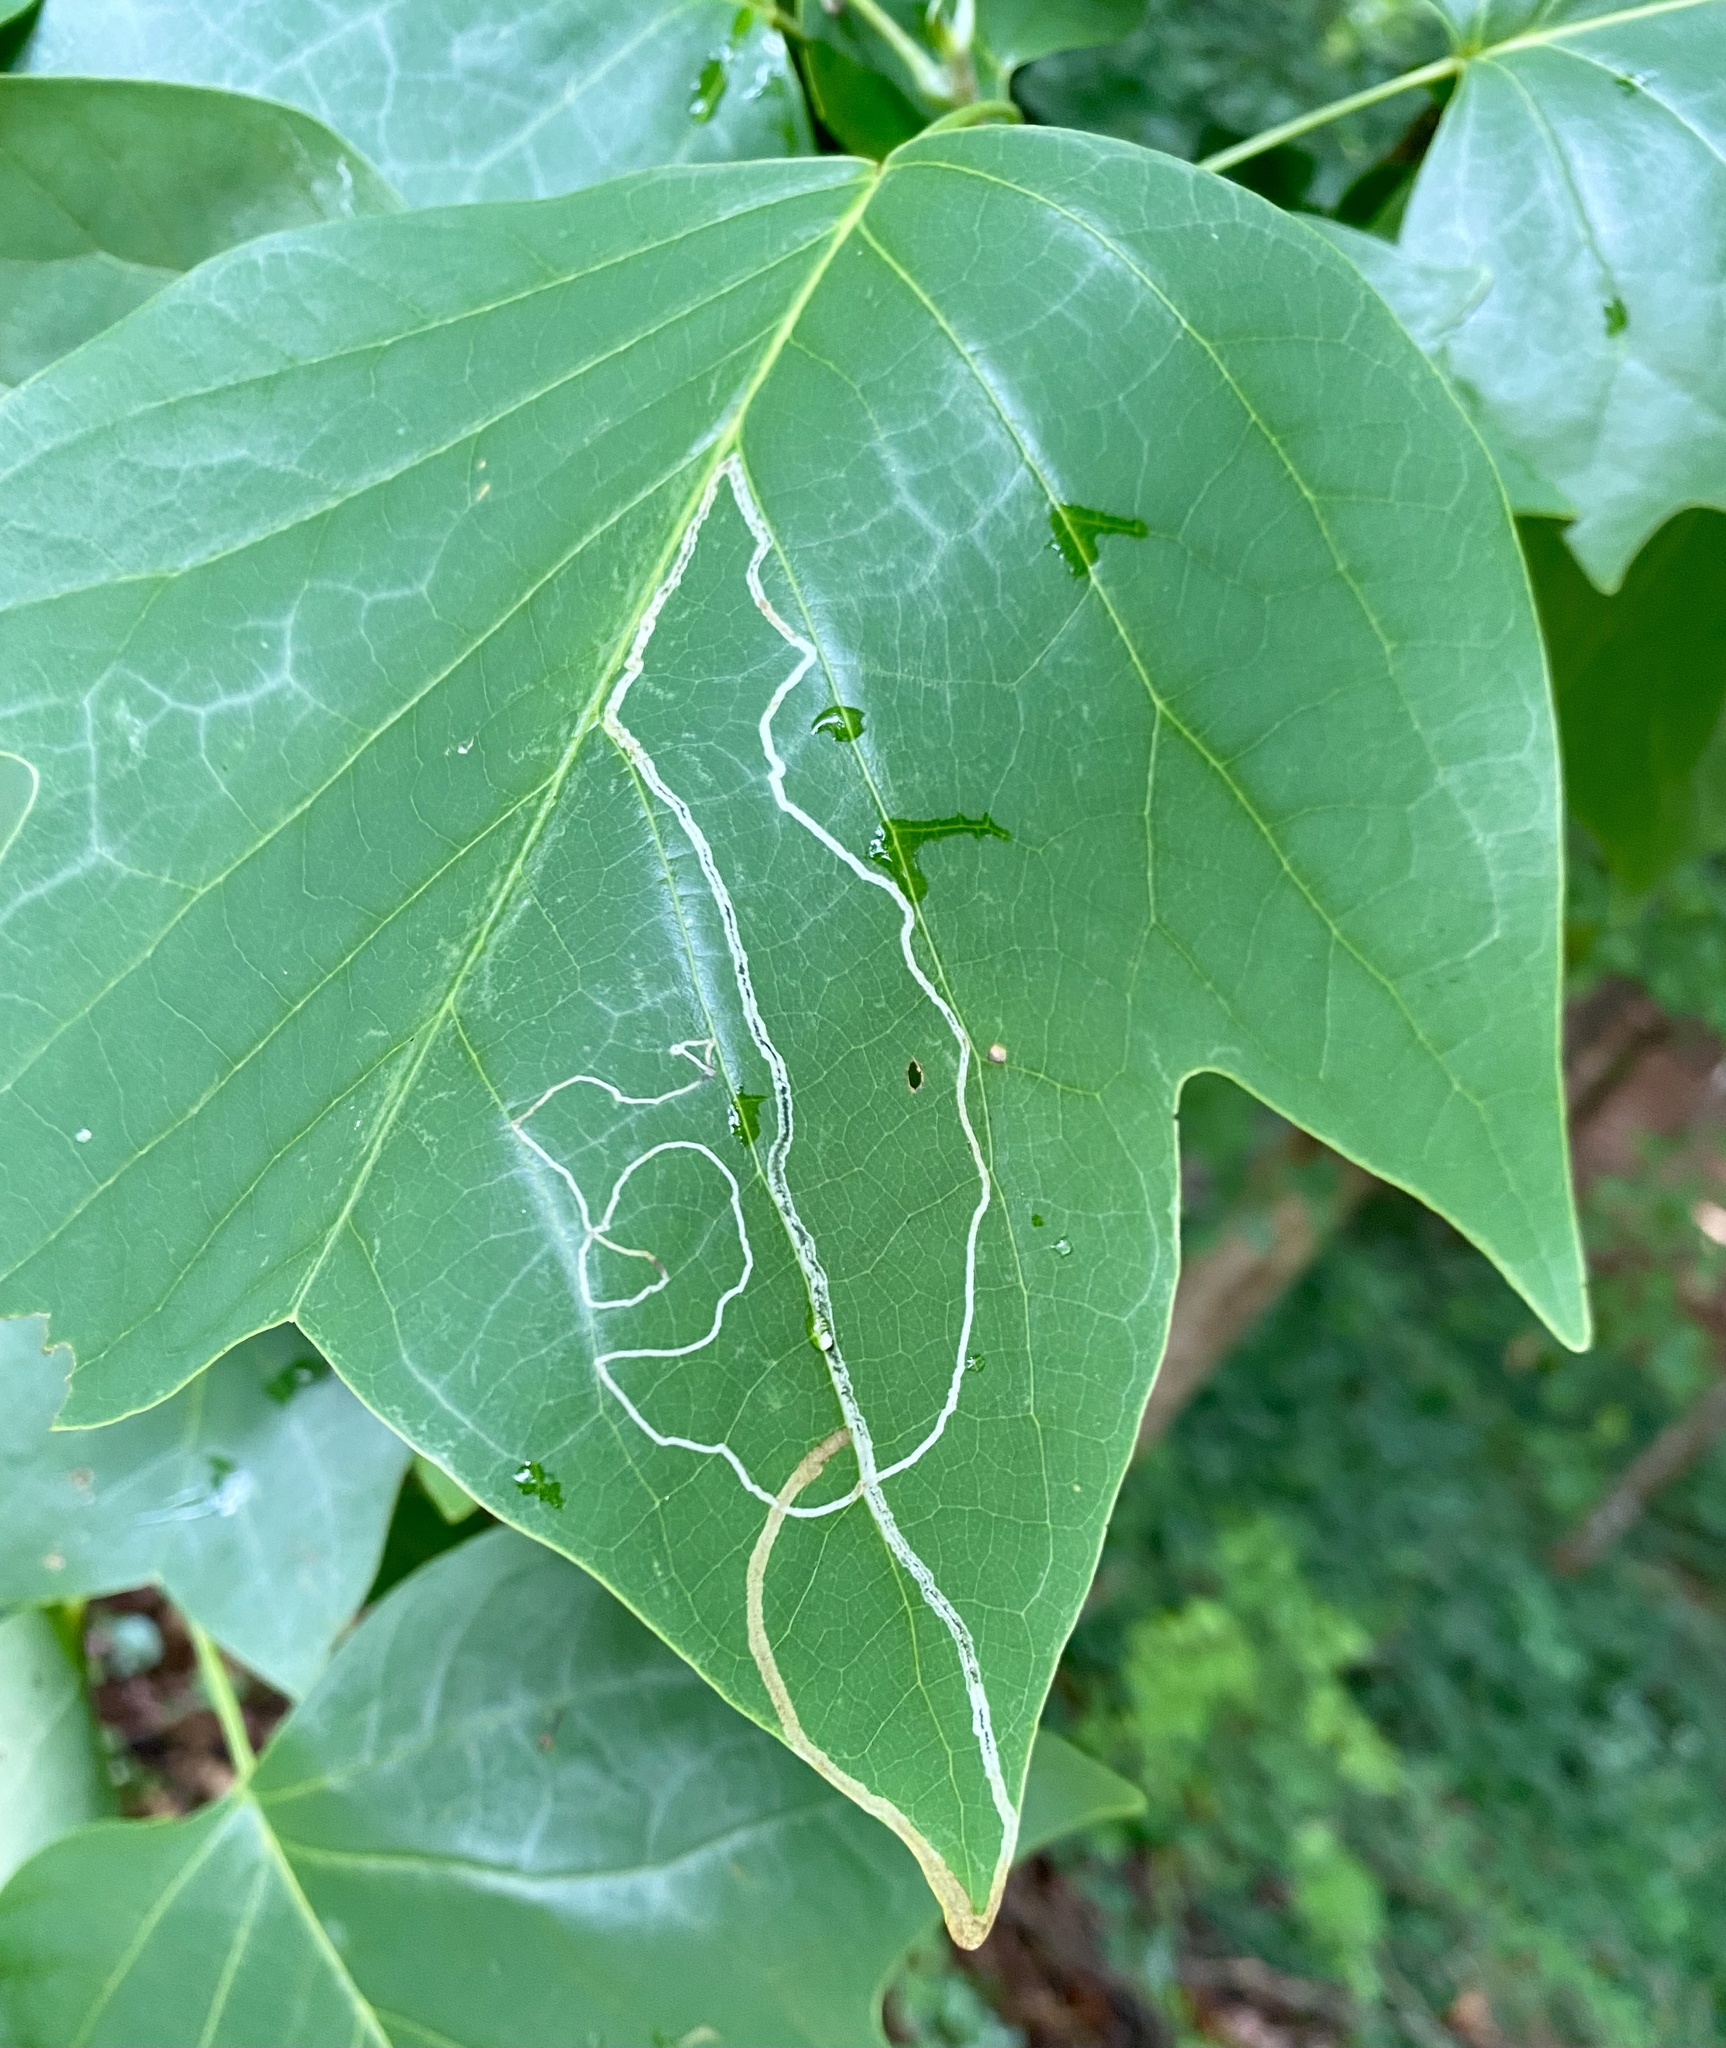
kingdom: Animalia
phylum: Arthropoda
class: Insecta
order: Lepidoptera
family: Gracillariidae
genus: Phyllocnistis
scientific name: Phyllocnistis liriodendronella
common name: Tulip tree leaf miner
